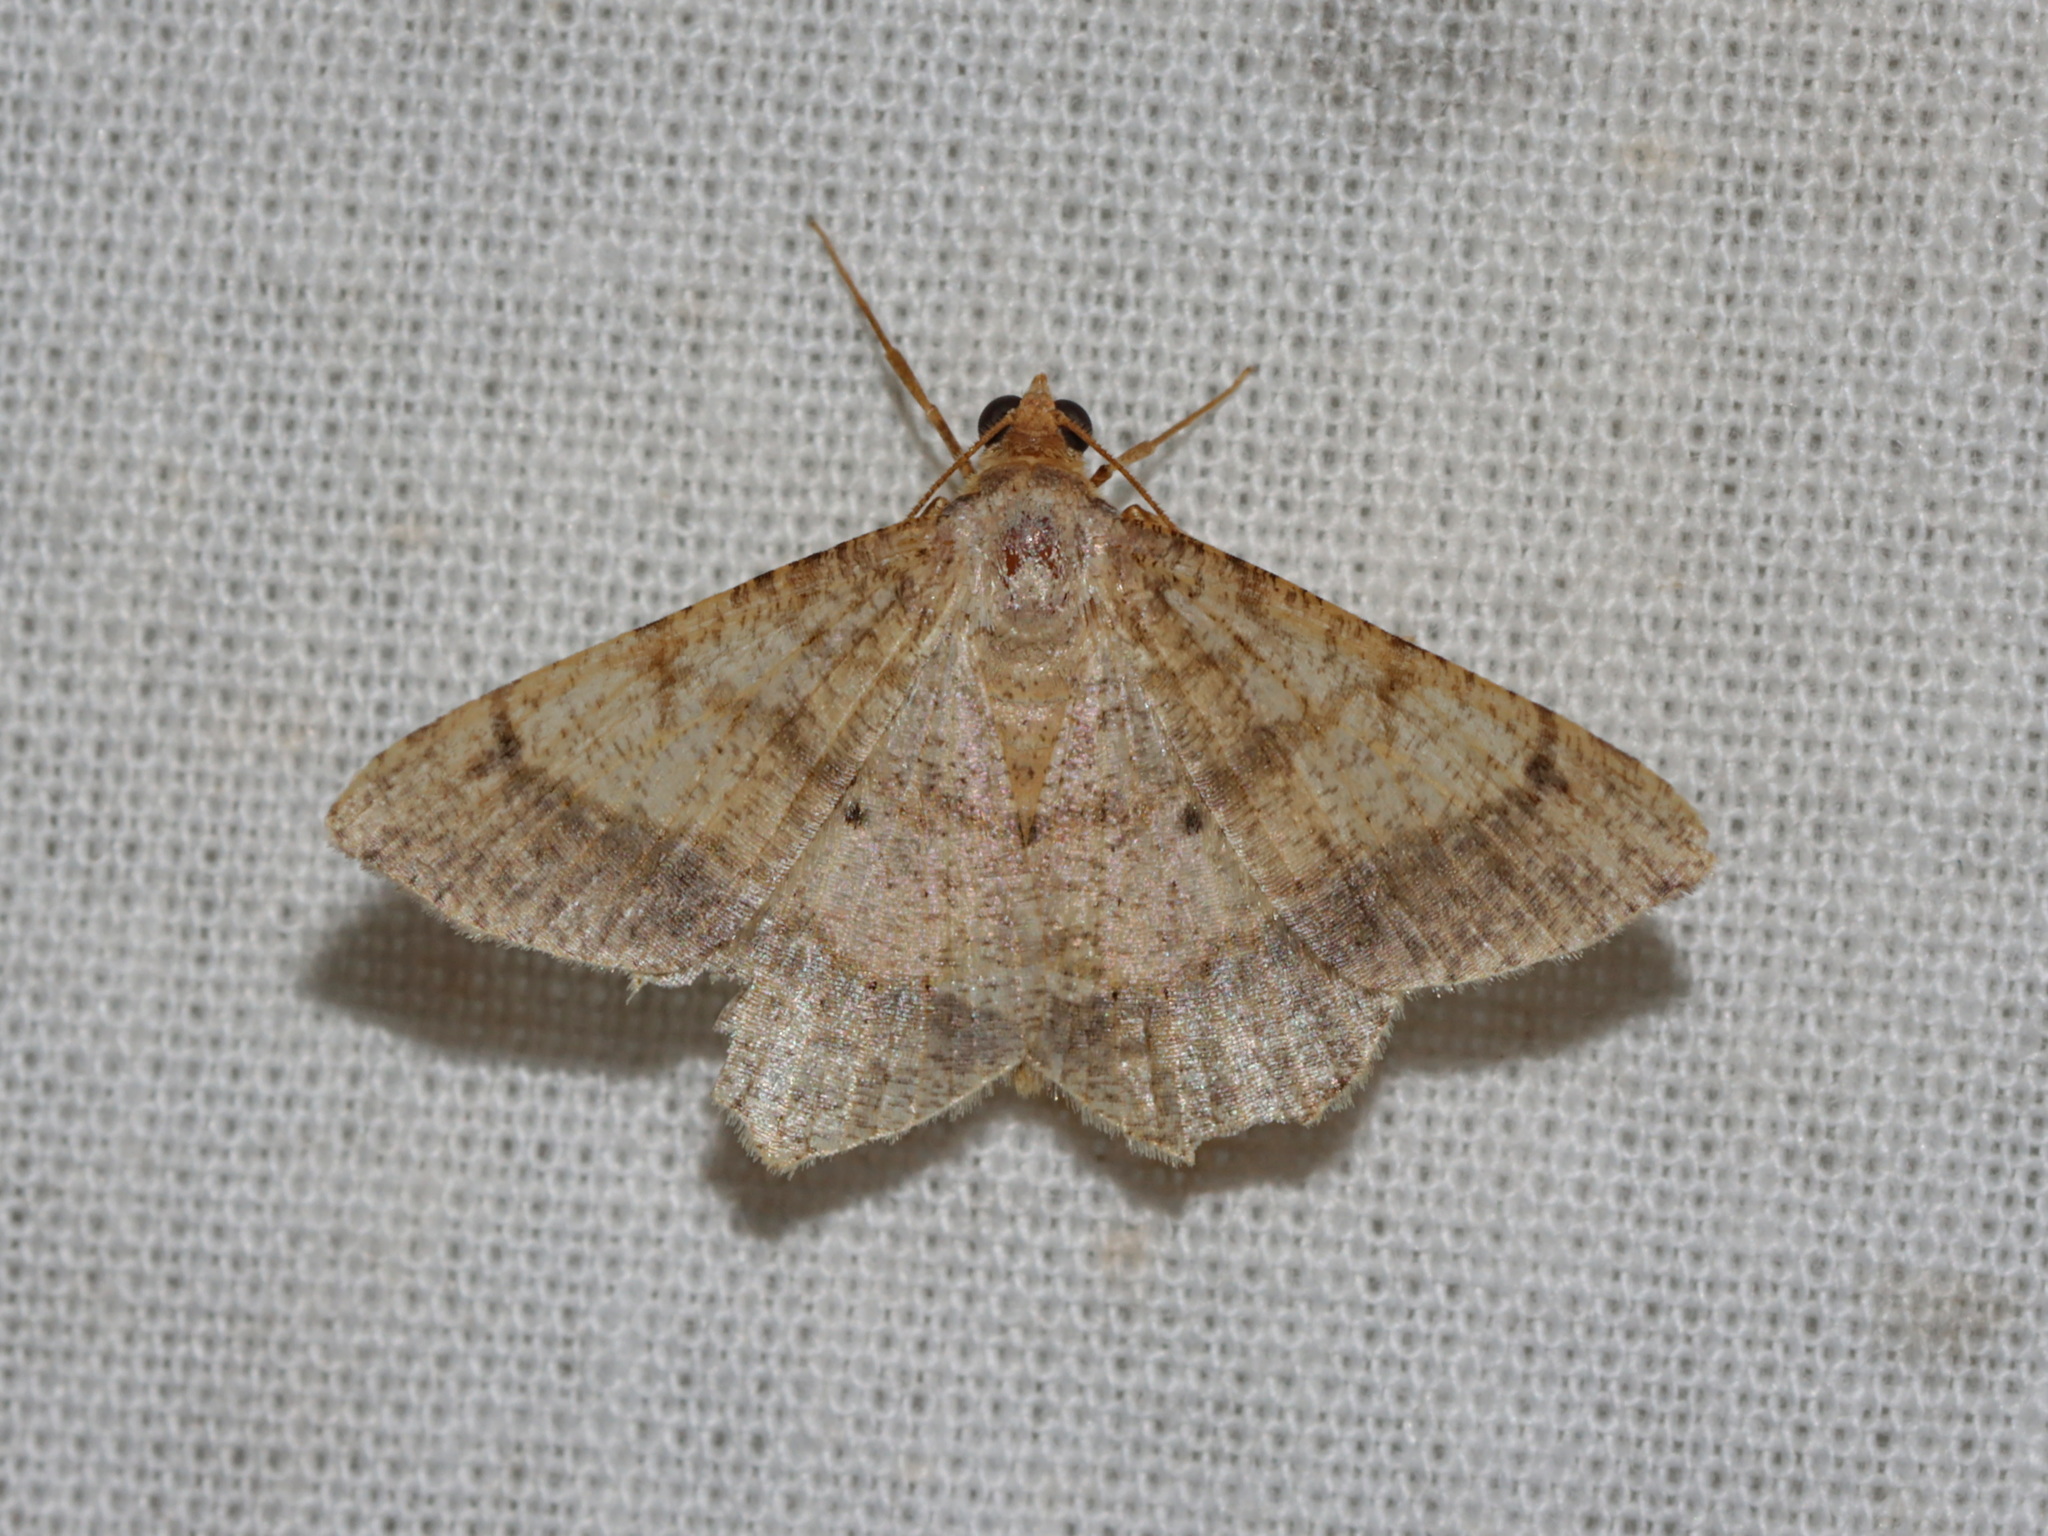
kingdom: Animalia
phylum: Arthropoda
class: Insecta
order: Lepidoptera
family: Geometridae
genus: Macaria
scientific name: Macaria abydata
